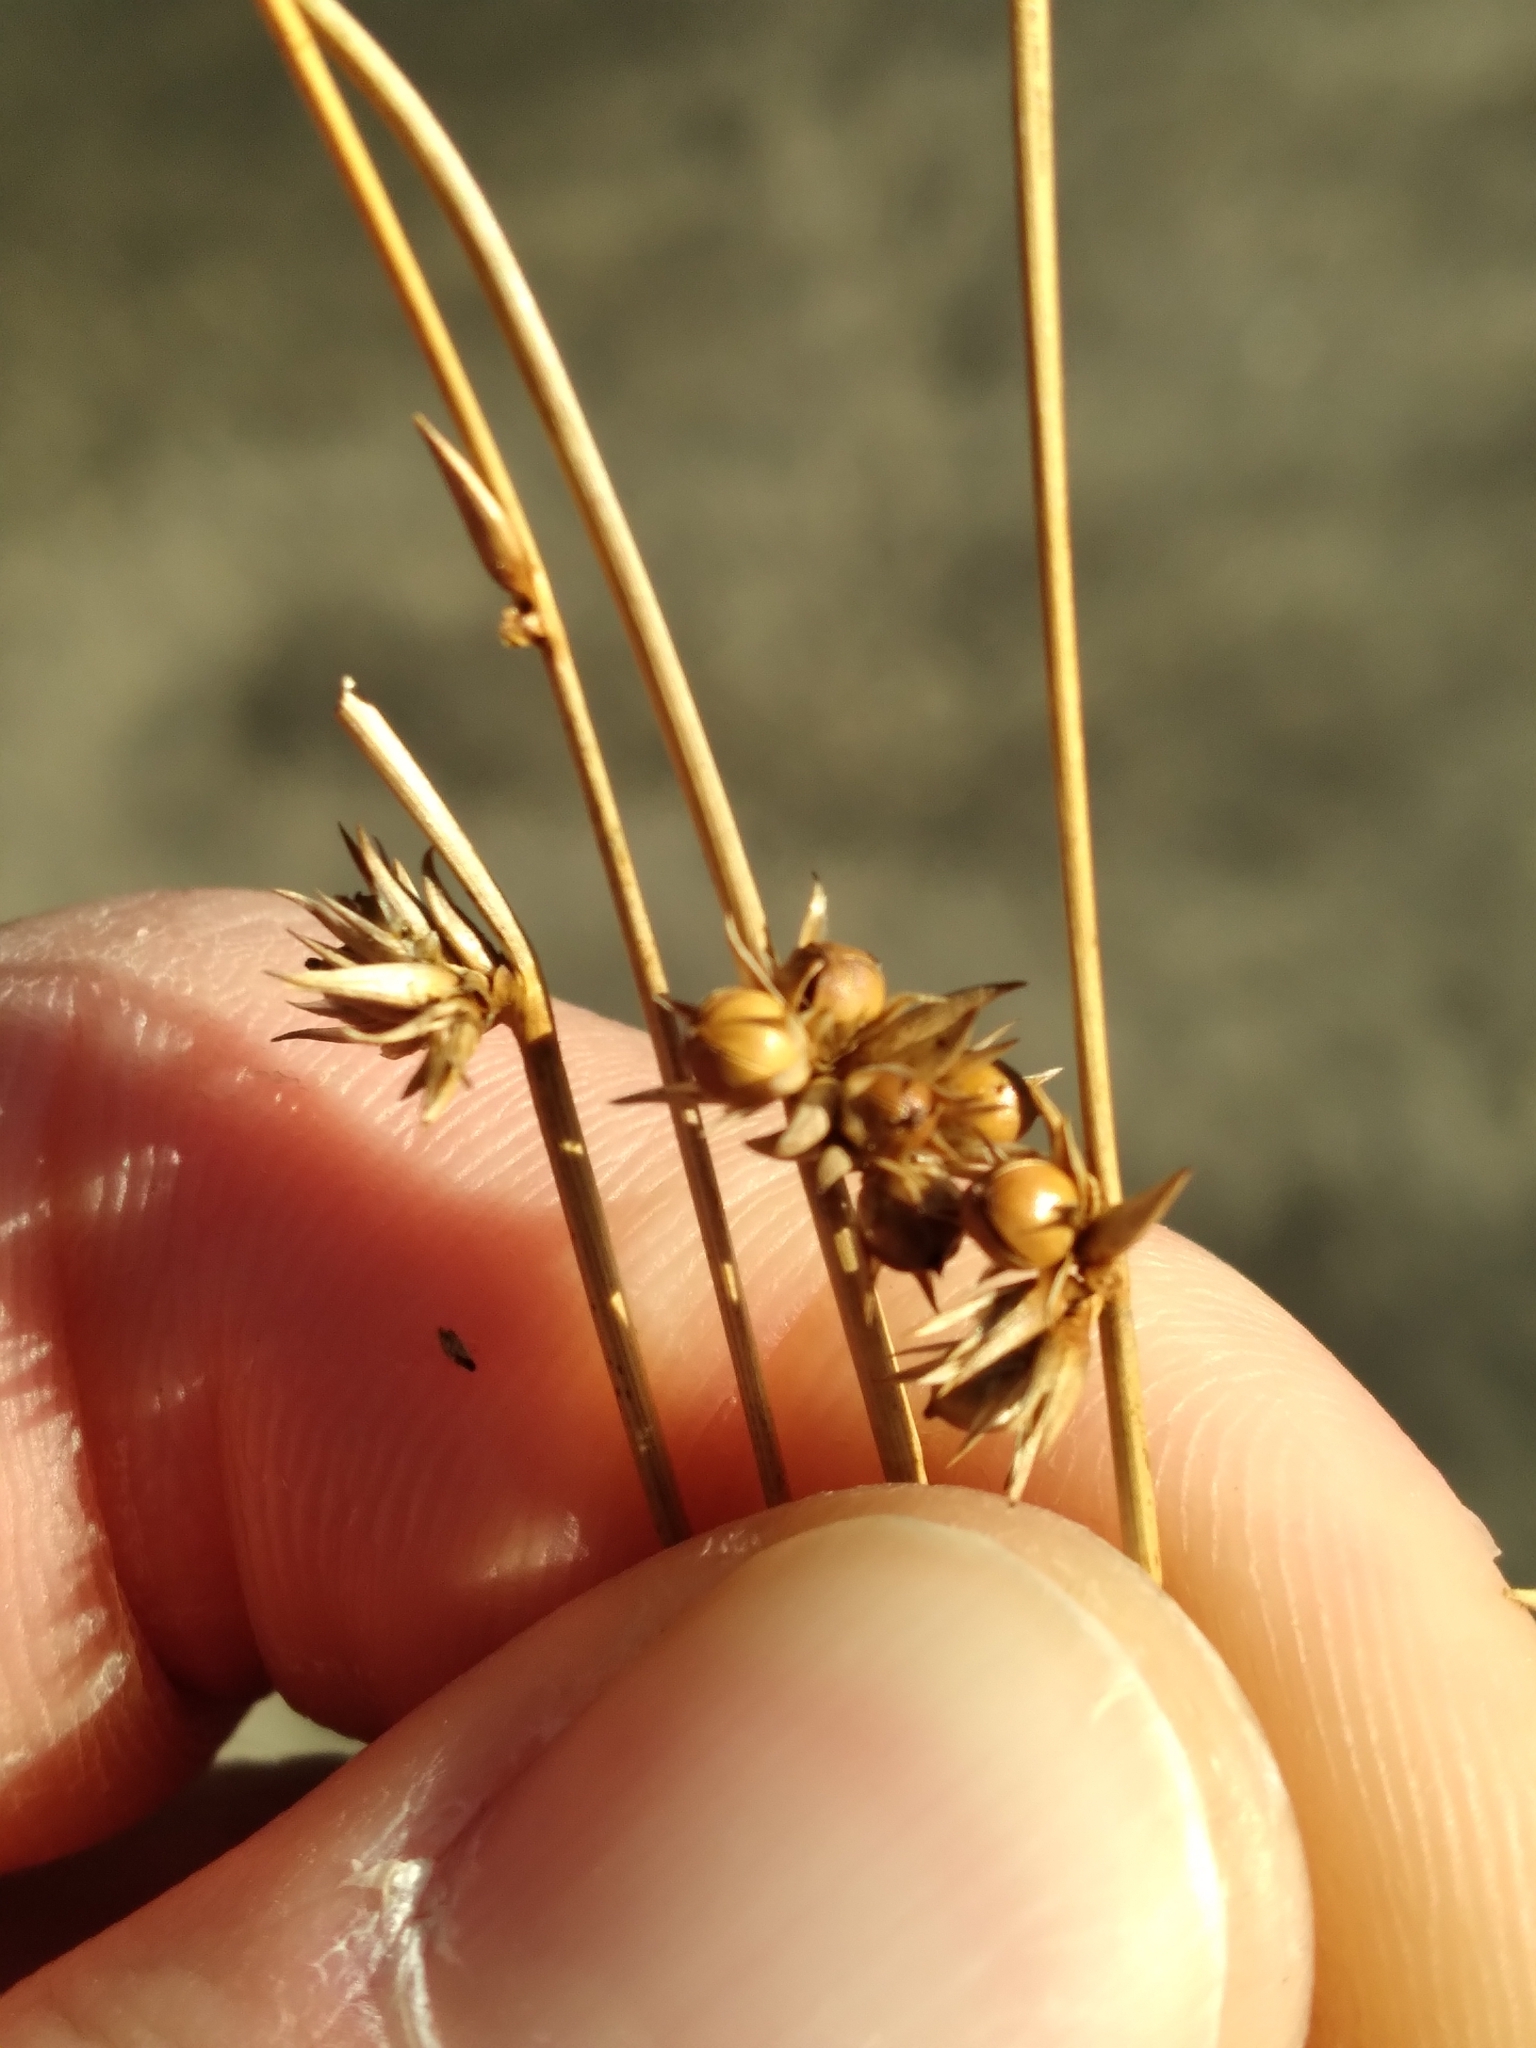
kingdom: Plantae
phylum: Tracheophyta
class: Liliopsida
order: Poales
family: Juncaceae
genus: Juncus
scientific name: Juncus coriaceus
